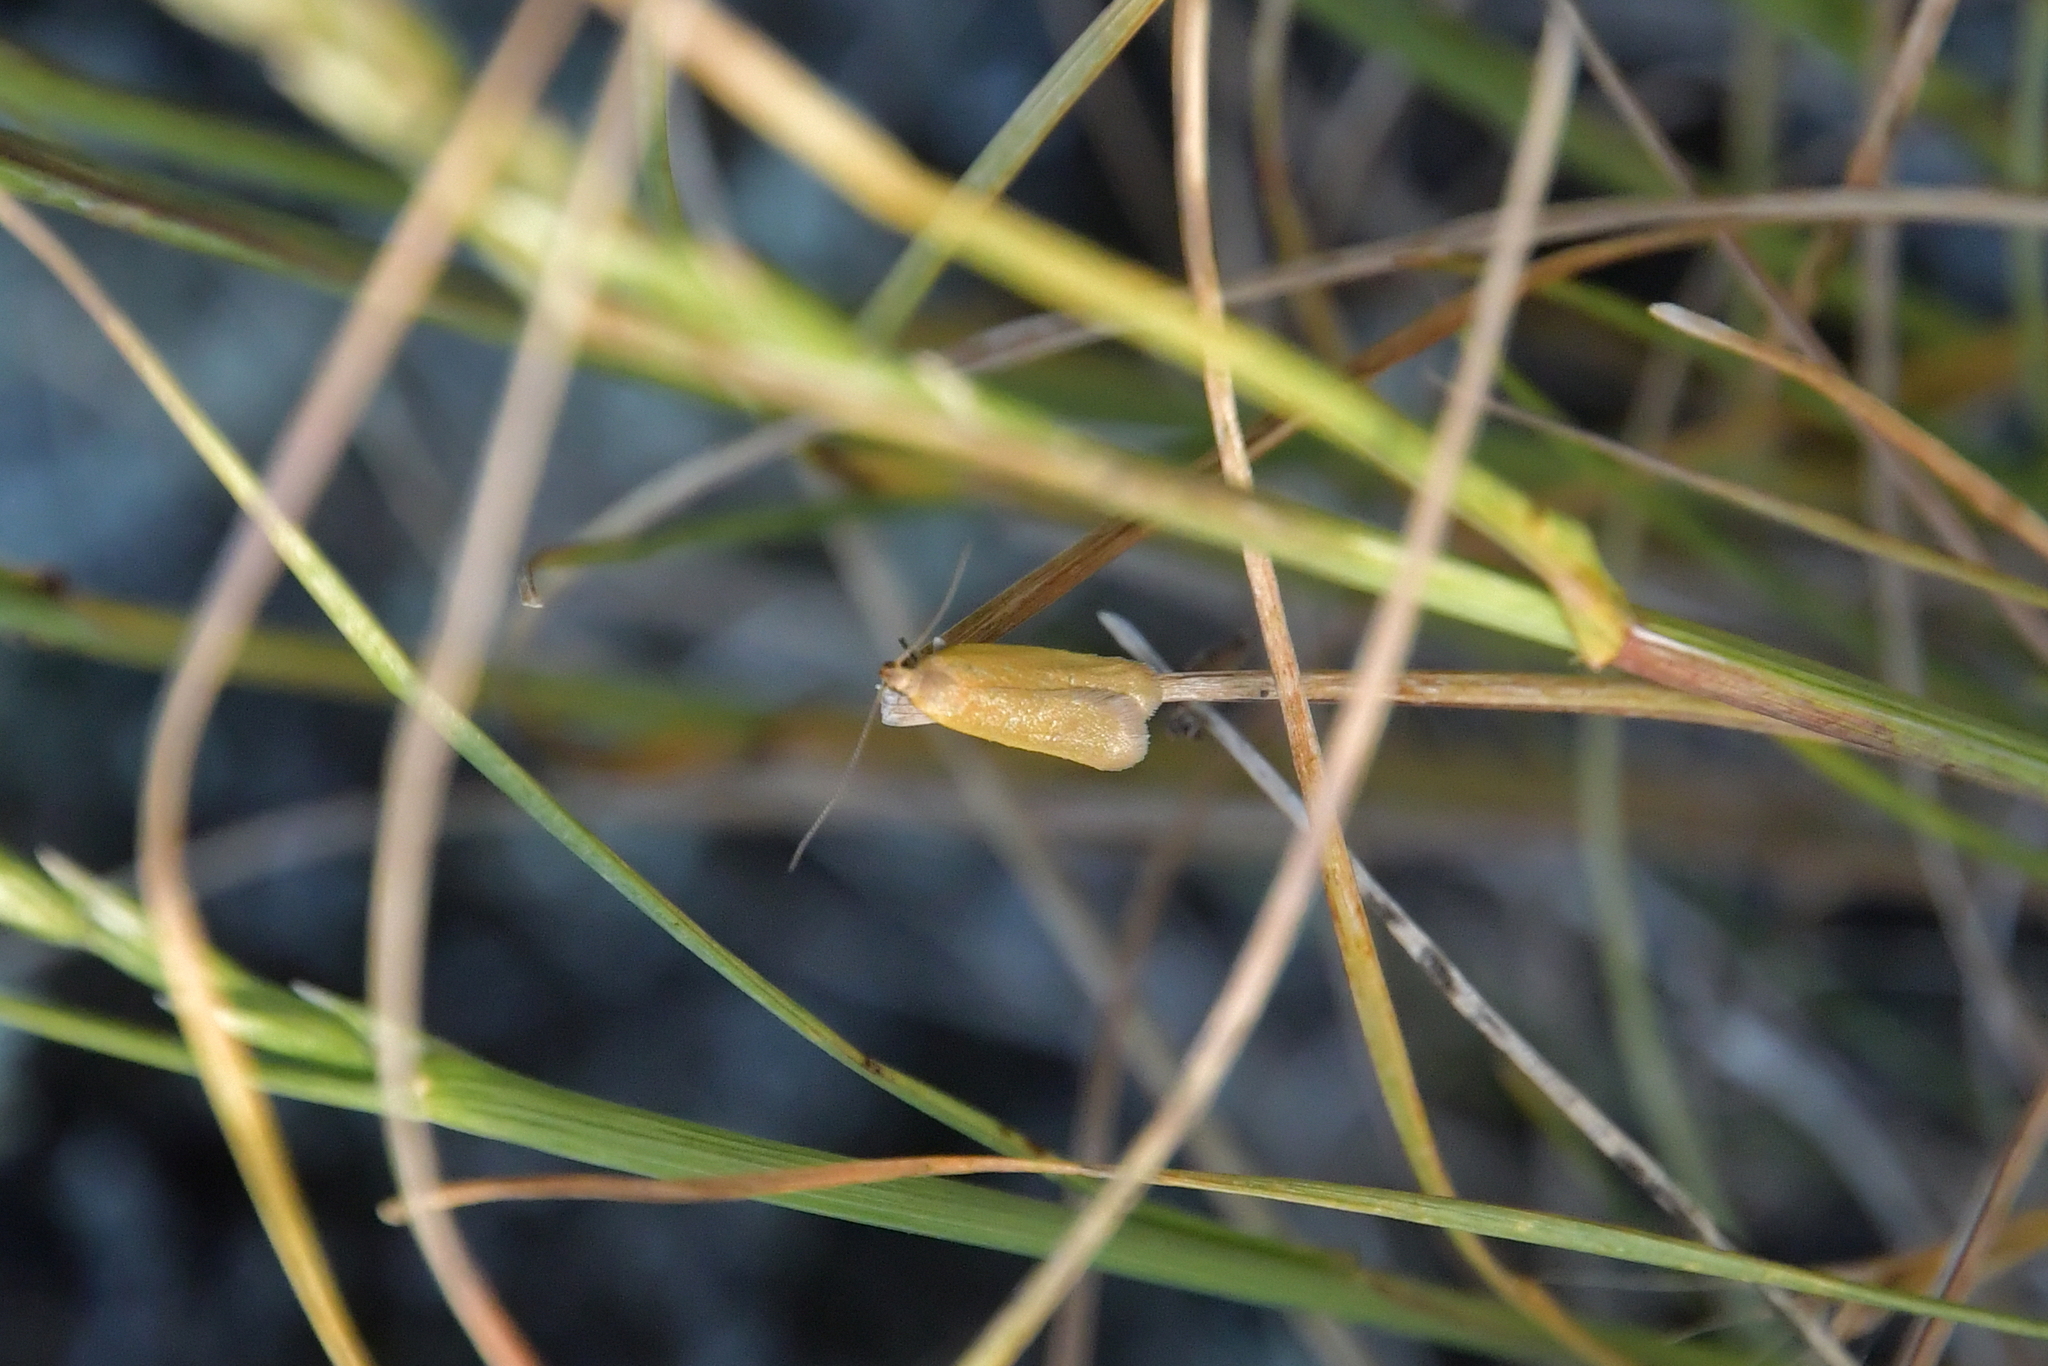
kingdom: Animalia
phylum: Arthropoda
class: Insecta
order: Lepidoptera
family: Oecophoridae
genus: Gymnobathra
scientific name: Gymnobathra parca
